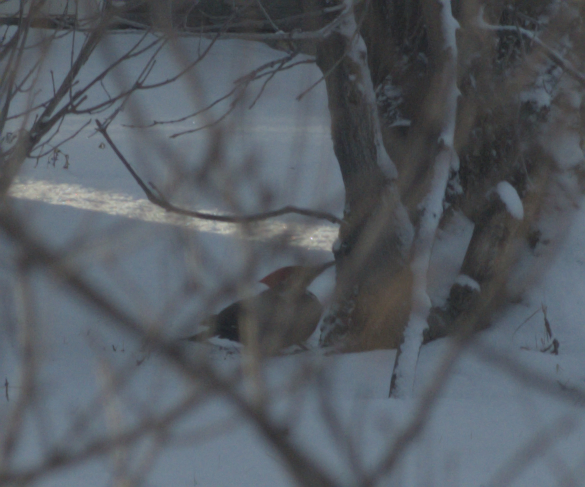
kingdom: Animalia
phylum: Chordata
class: Aves
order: Piciformes
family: Picidae
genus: Dryocopus
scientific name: Dryocopus pileatus
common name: Pileated woodpecker
